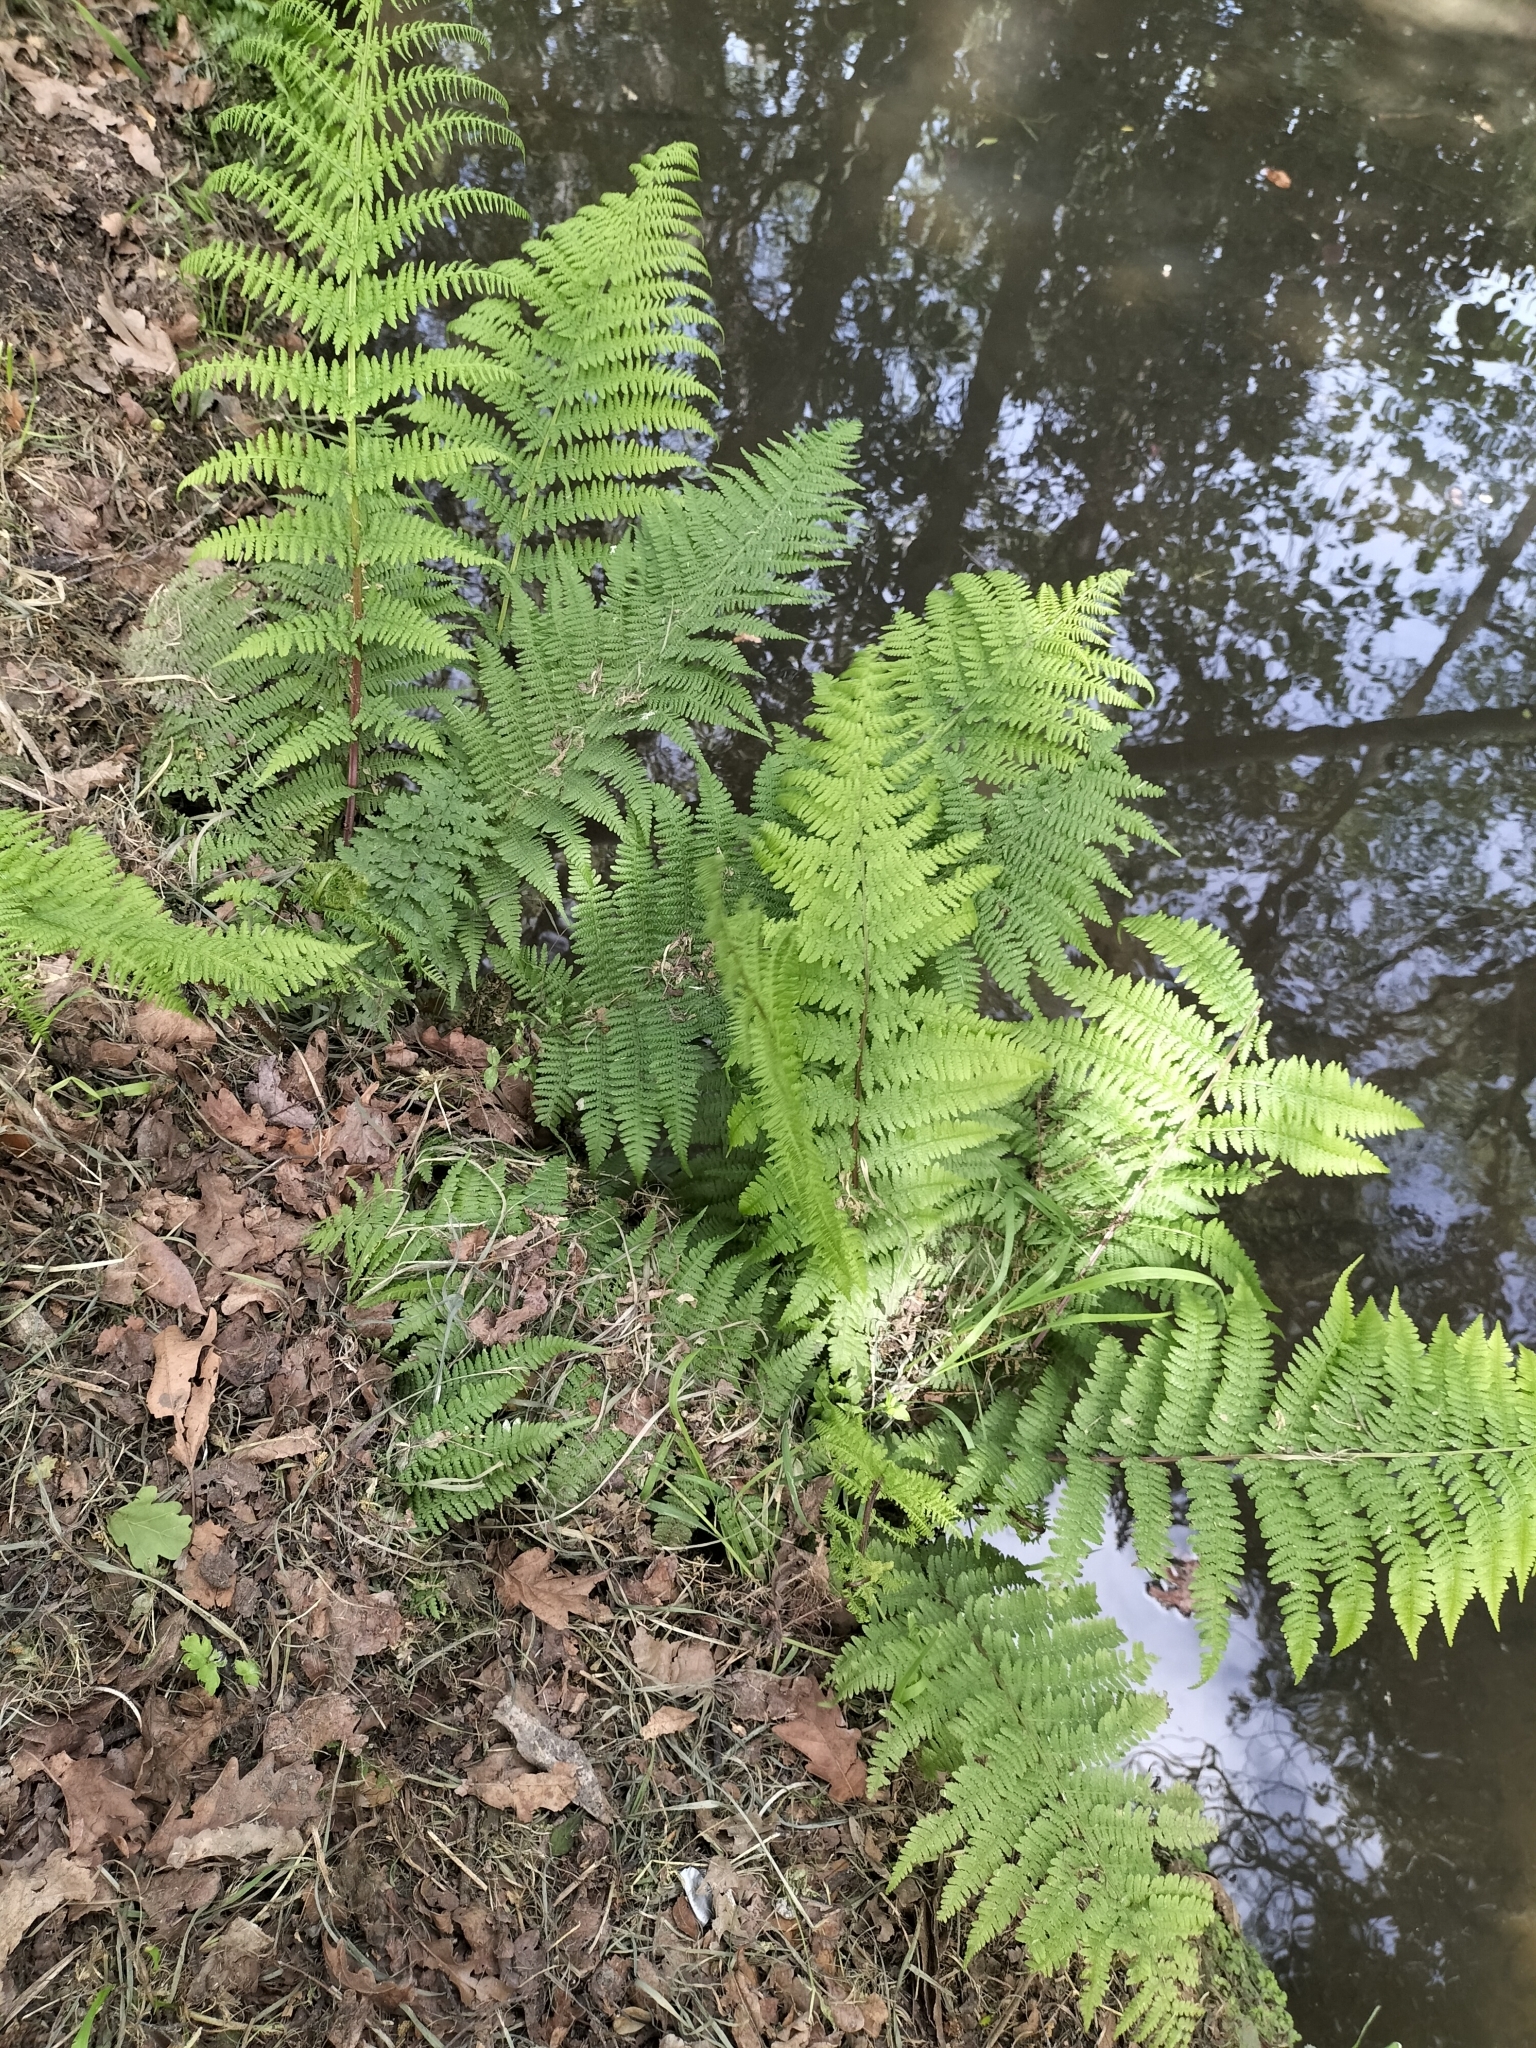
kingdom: Plantae
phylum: Tracheophyta
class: Polypodiopsida
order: Polypodiales
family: Athyriaceae
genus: Athyrium
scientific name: Athyrium filix-femina
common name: Lady fern
